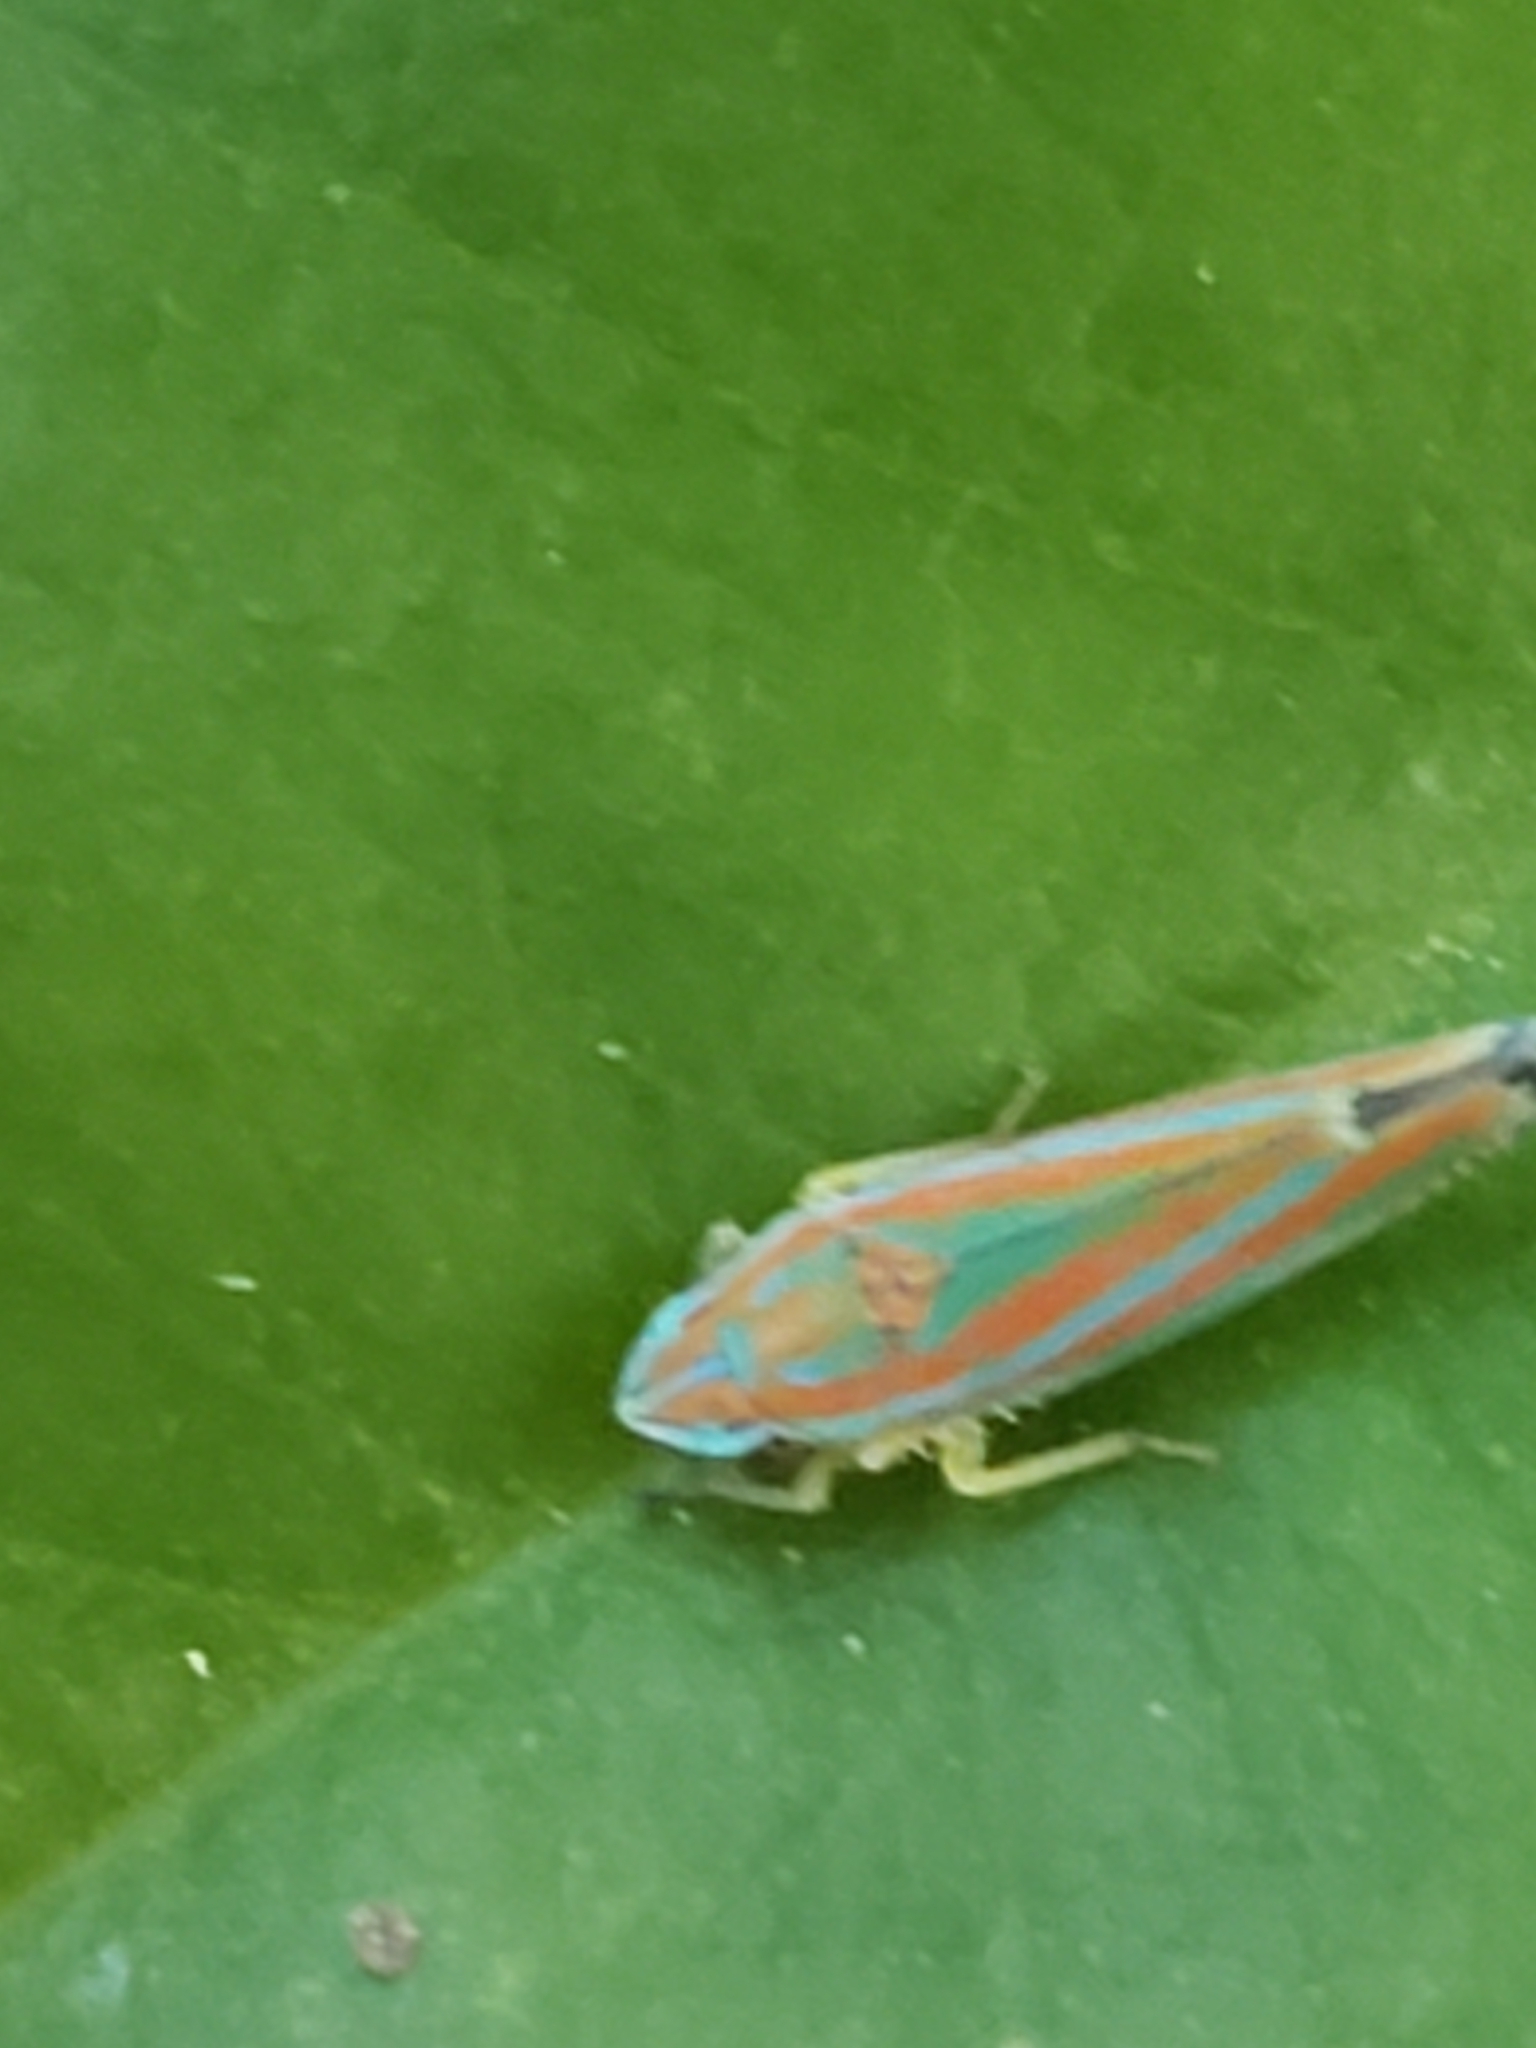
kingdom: Animalia
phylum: Arthropoda
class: Insecta
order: Hemiptera
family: Cicadellidae
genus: Graphocephala
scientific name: Graphocephala versuta
